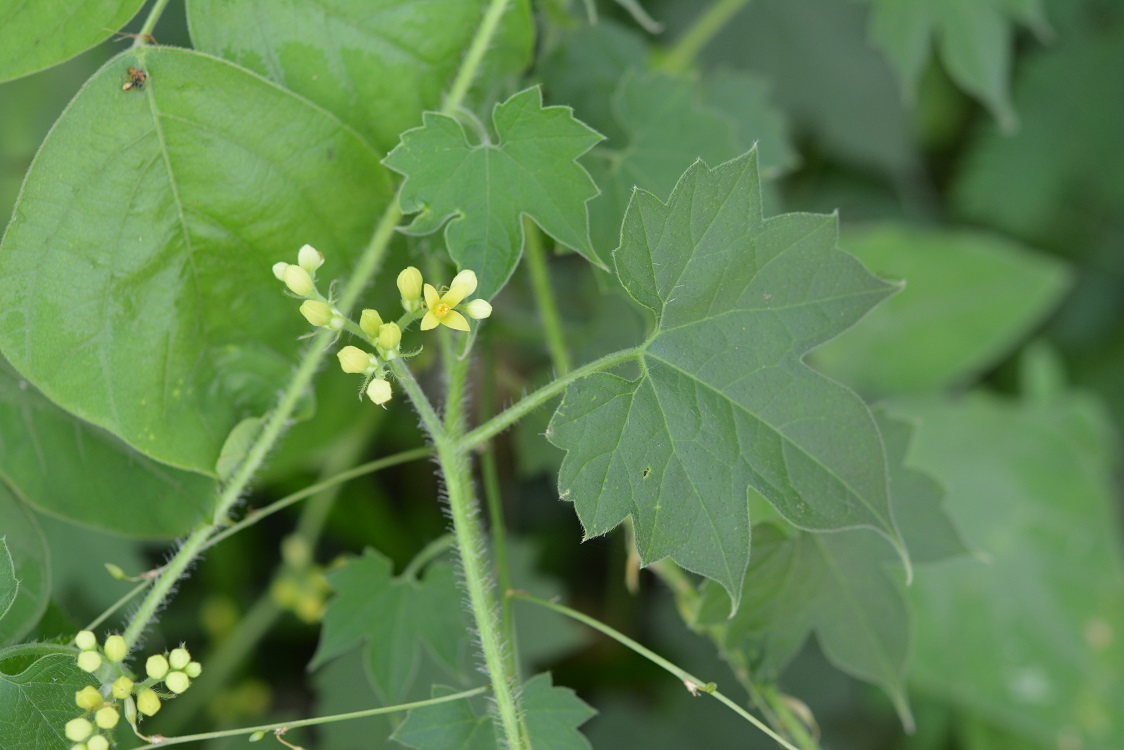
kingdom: Plantae
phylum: Tracheophyta
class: Magnoliopsida
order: Cornales
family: Loasaceae
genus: Gronovia
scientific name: Gronovia scandens
